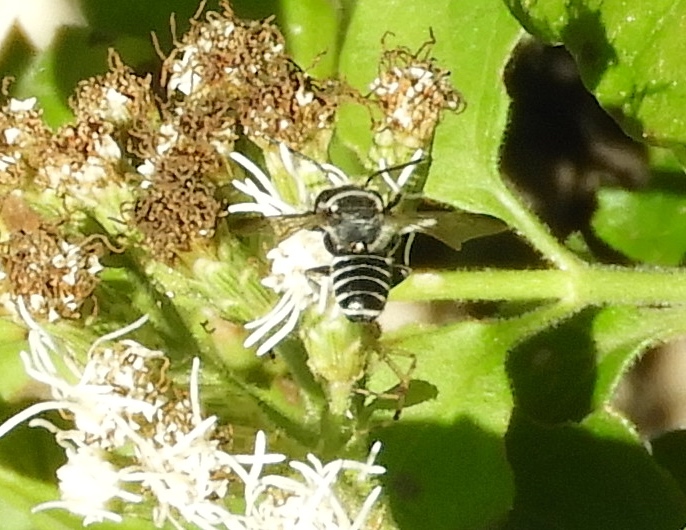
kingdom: Animalia
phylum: Arthropoda
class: Insecta
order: Hymenoptera
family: Megachilidae
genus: Megachile
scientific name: Megachile
